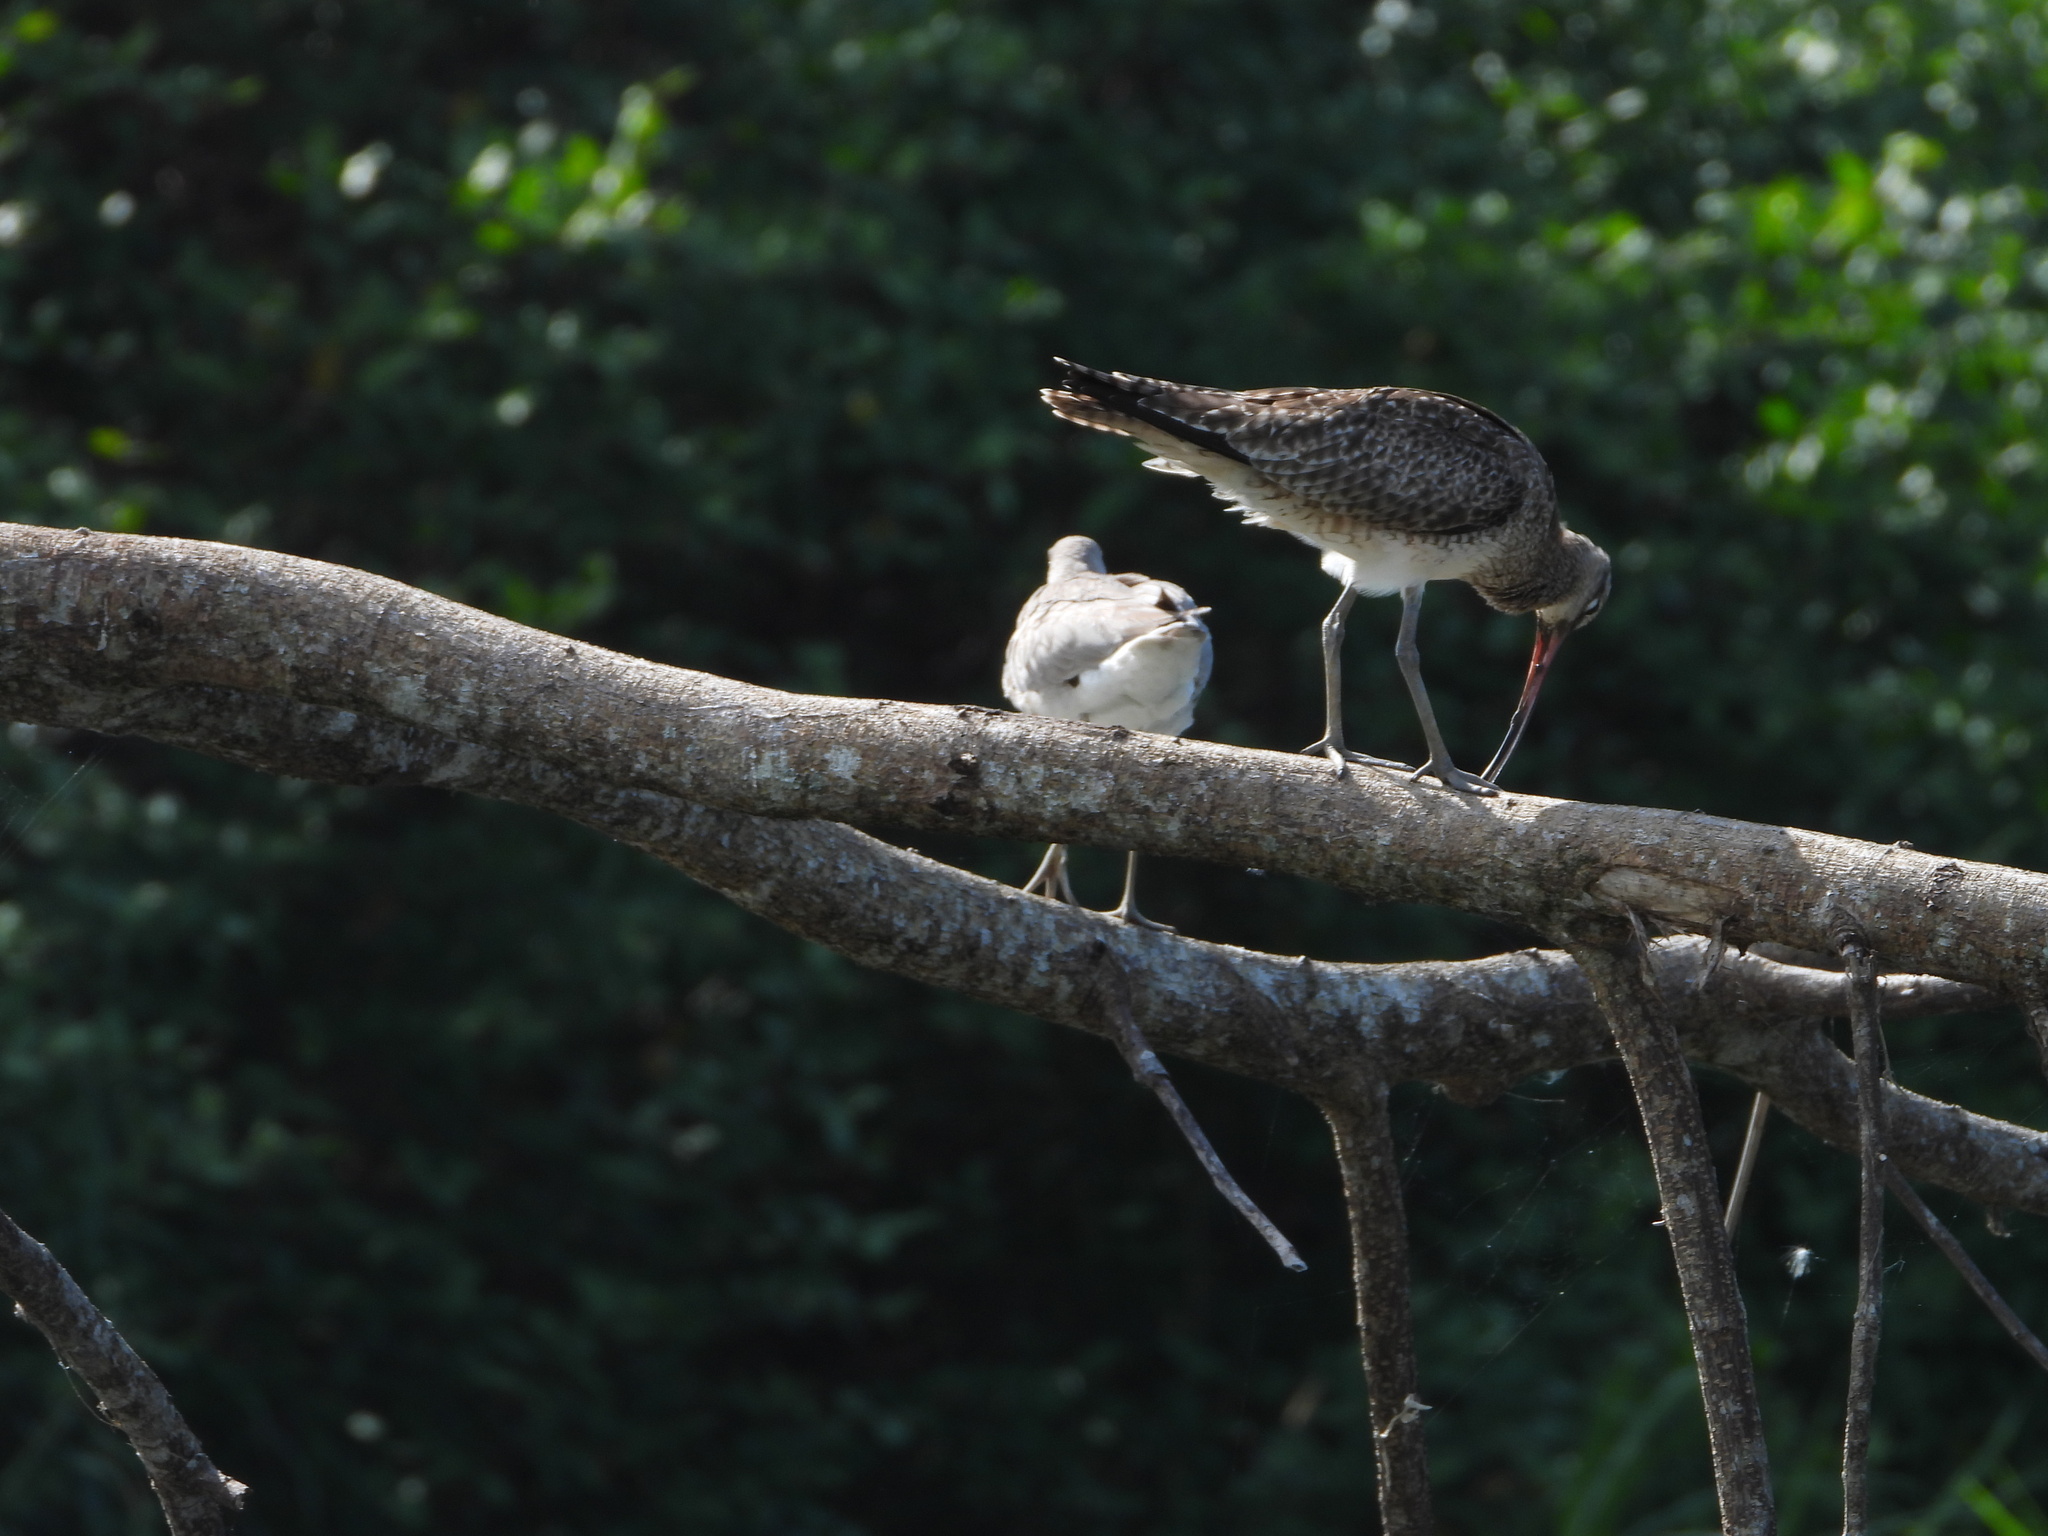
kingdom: Animalia
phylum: Chordata
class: Aves
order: Charadriiformes
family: Scolopacidae
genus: Numenius
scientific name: Numenius phaeopus
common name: Whimbrel
